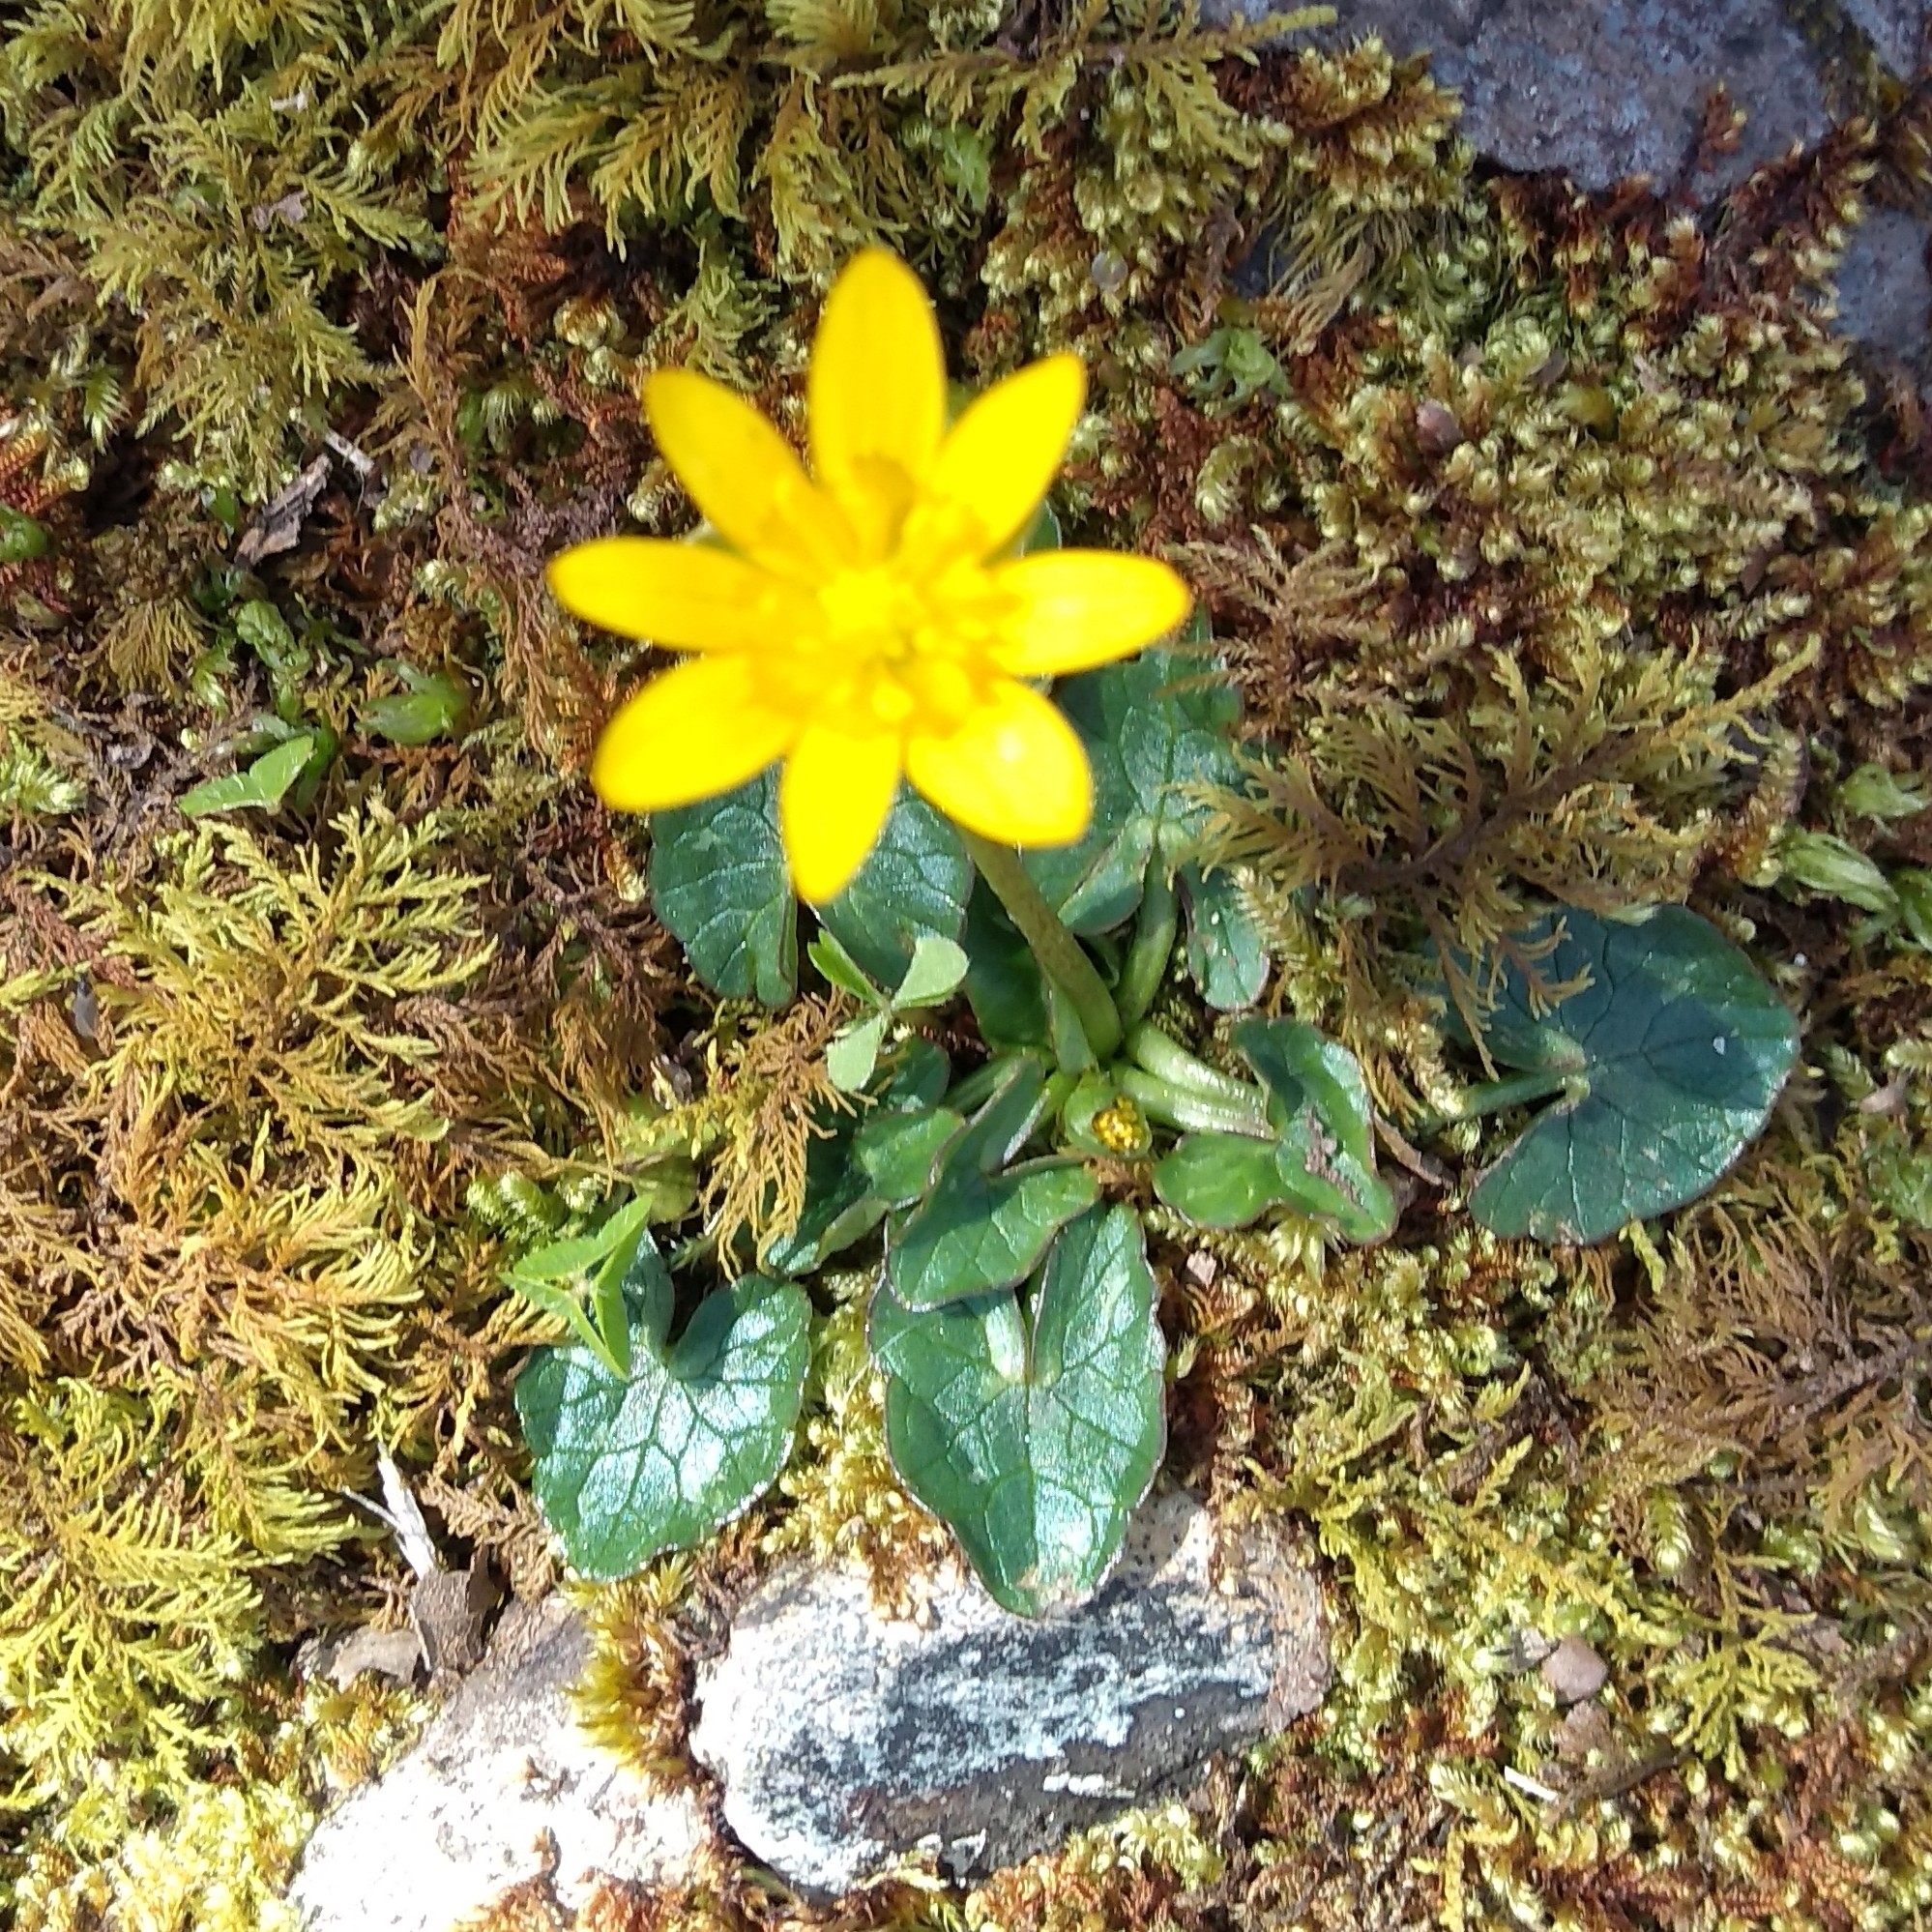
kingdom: Plantae
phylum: Tracheophyta
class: Magnoliopsida
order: Ranunculales
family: Ranunculaceae
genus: Ficaria
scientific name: Ficaria verna
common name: Lesser celandine
